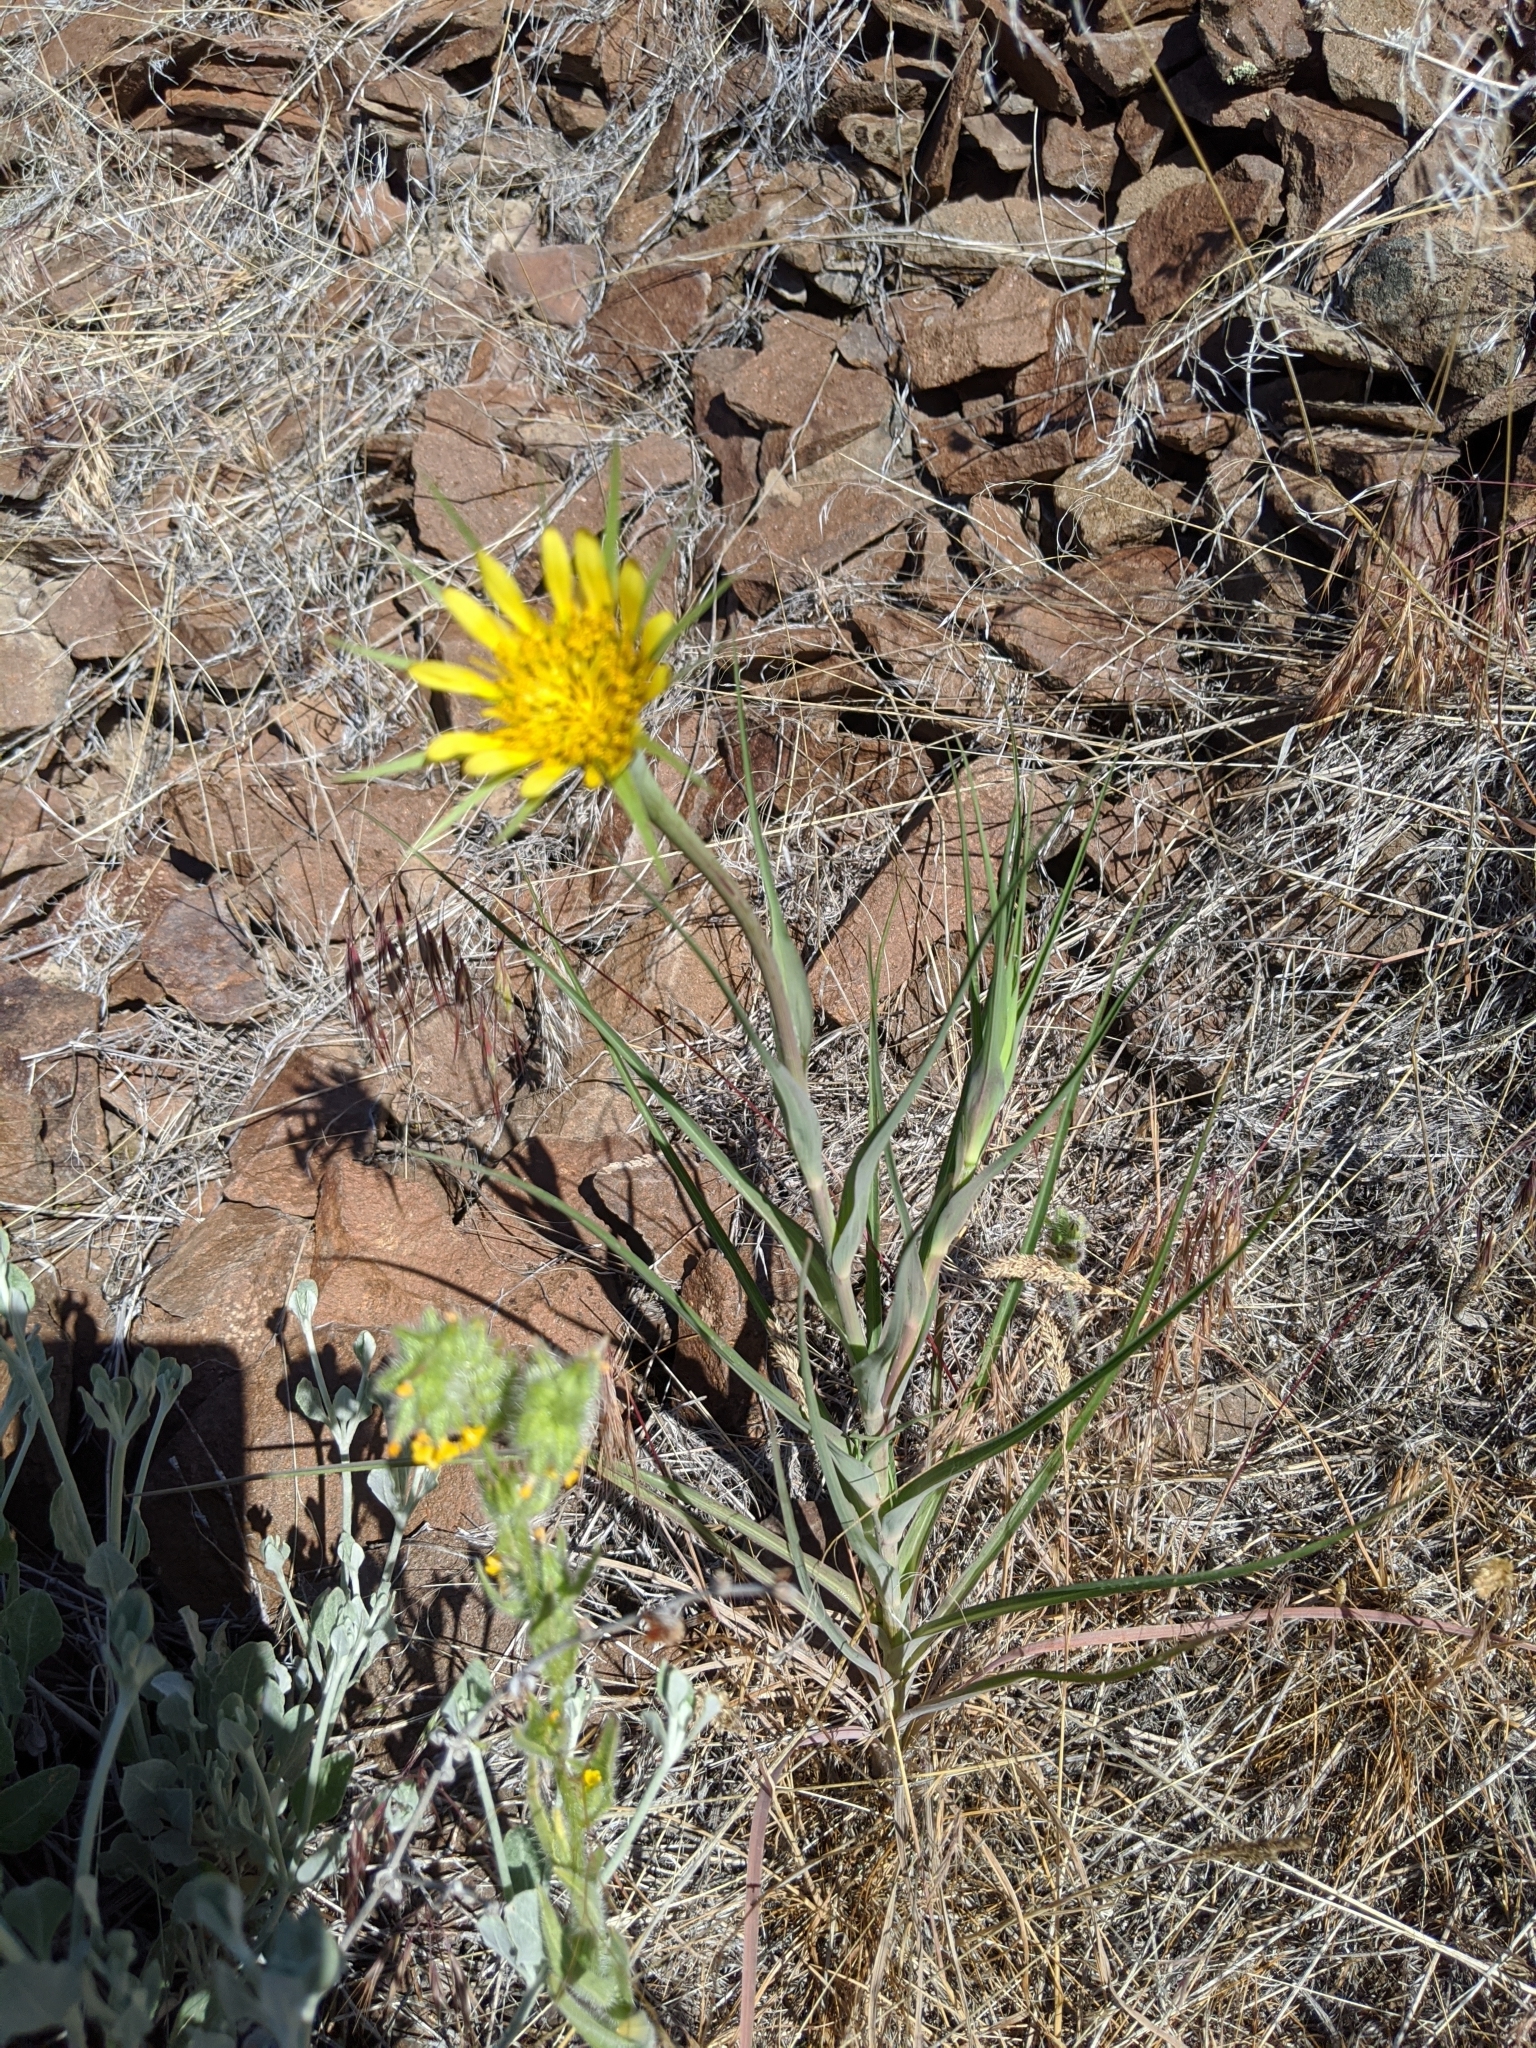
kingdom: Plantae
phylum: Tracheophyta
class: Magnoliopsida
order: Asterales
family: Asteraceae
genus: Tragopogon
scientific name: Tragopogon dubius
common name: Yellow salsify
